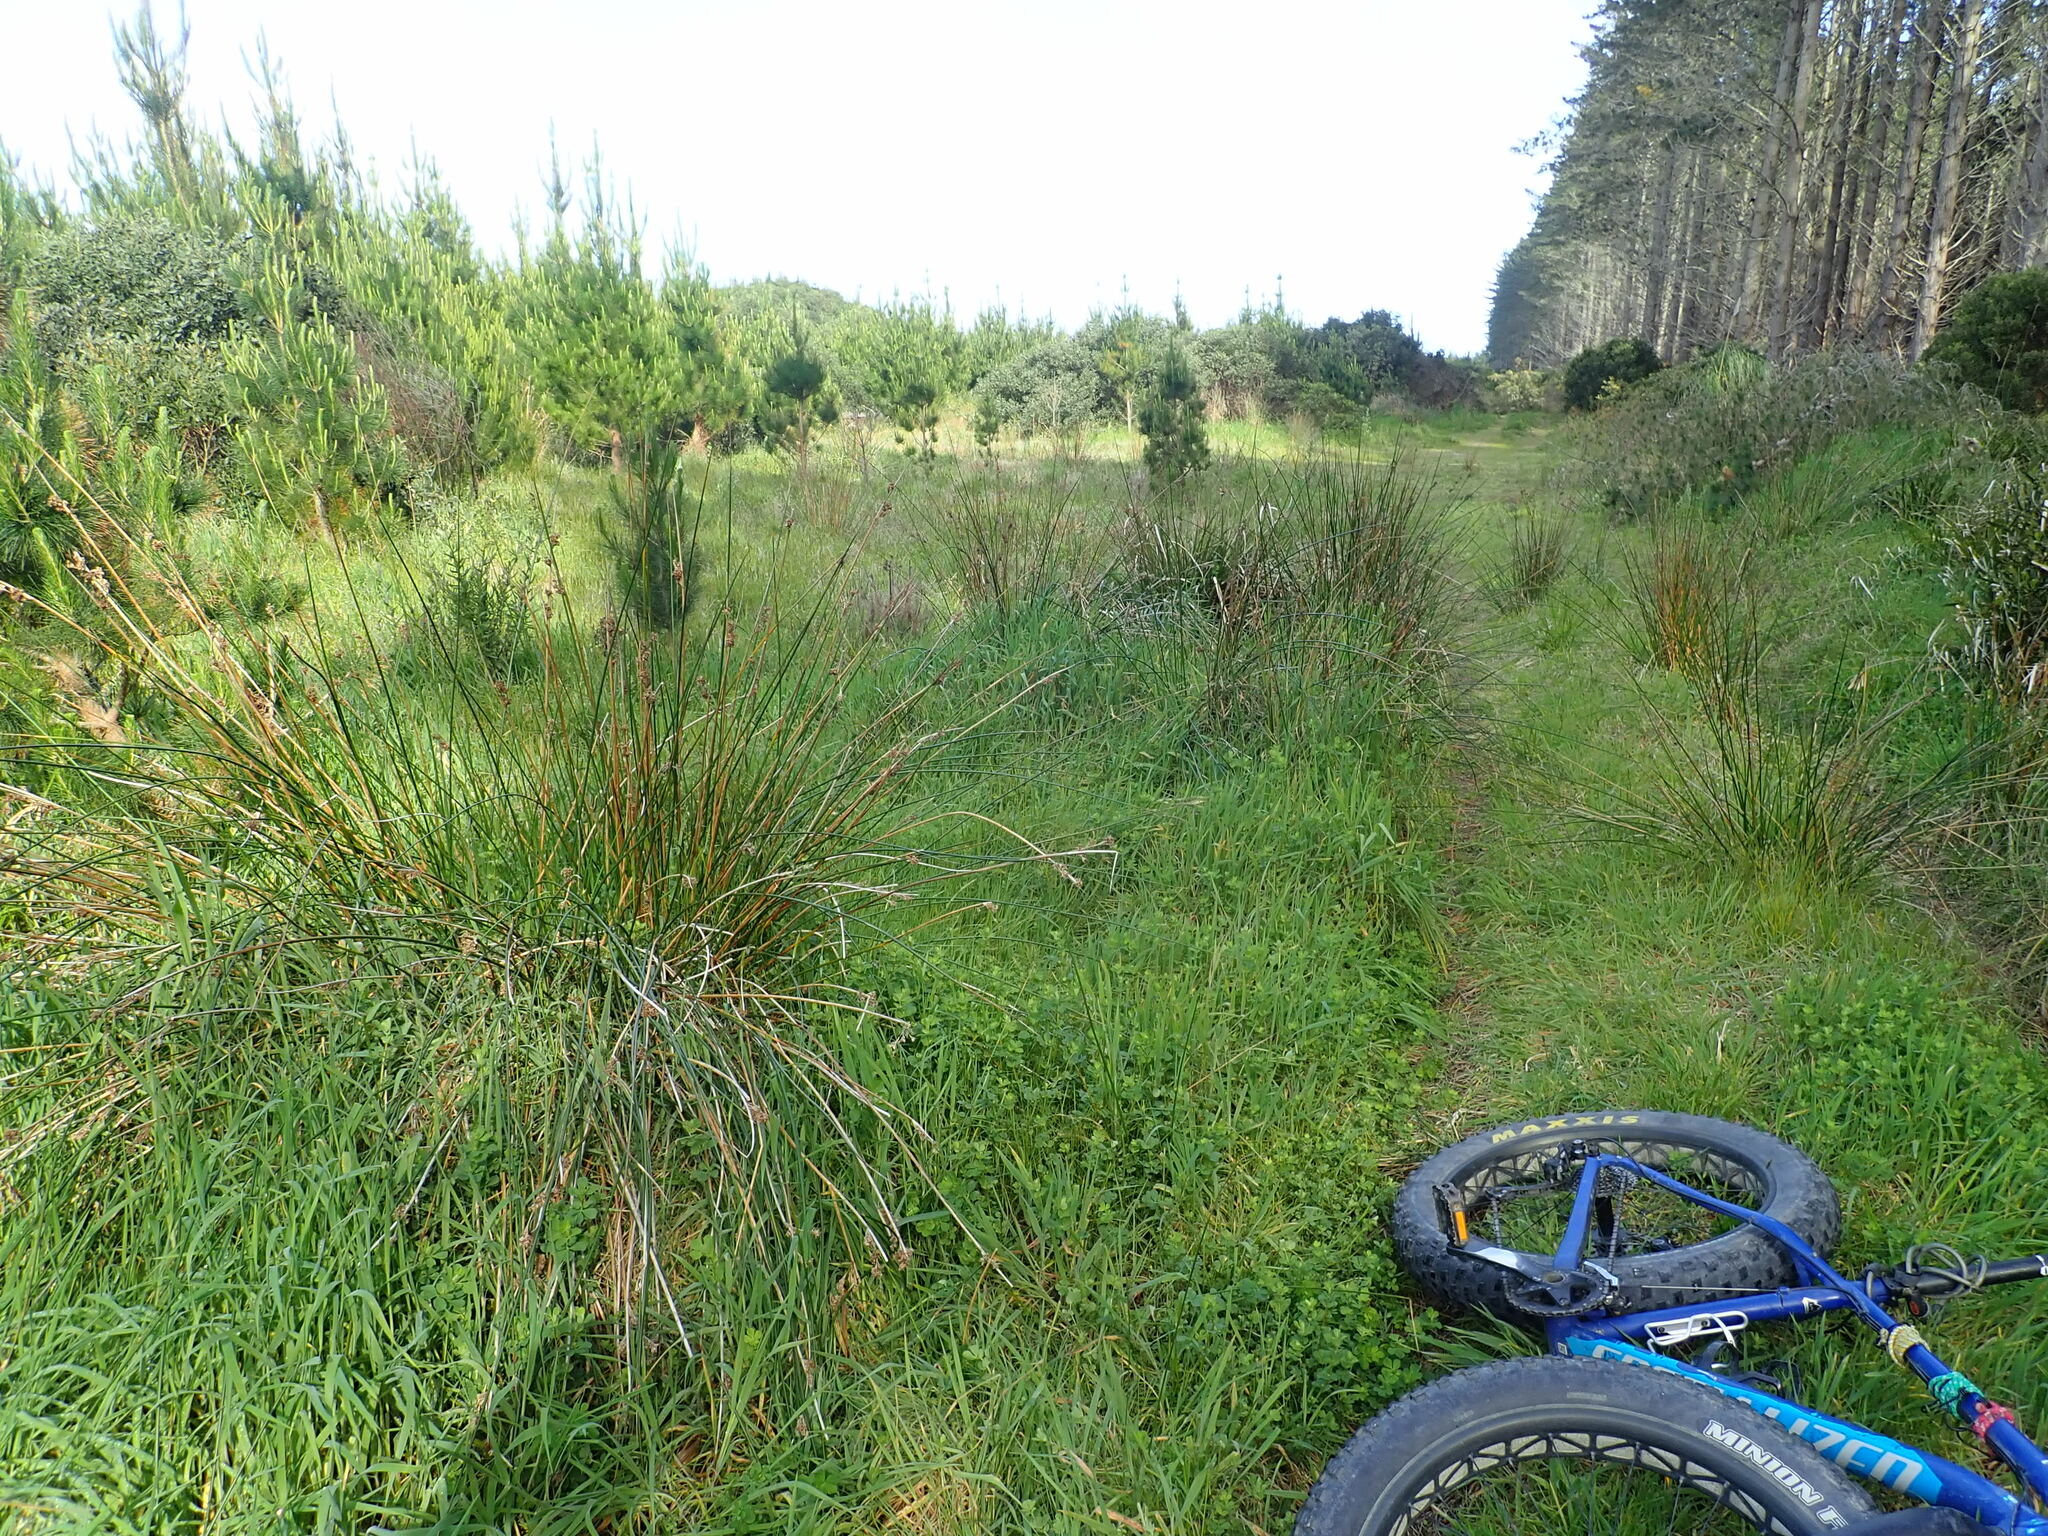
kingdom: Plantae
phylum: Tracheophyta
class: Liliopsida
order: Poales
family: Juncaceae
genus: Juncus
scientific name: Juncus pallidus
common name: Great soft-rush
